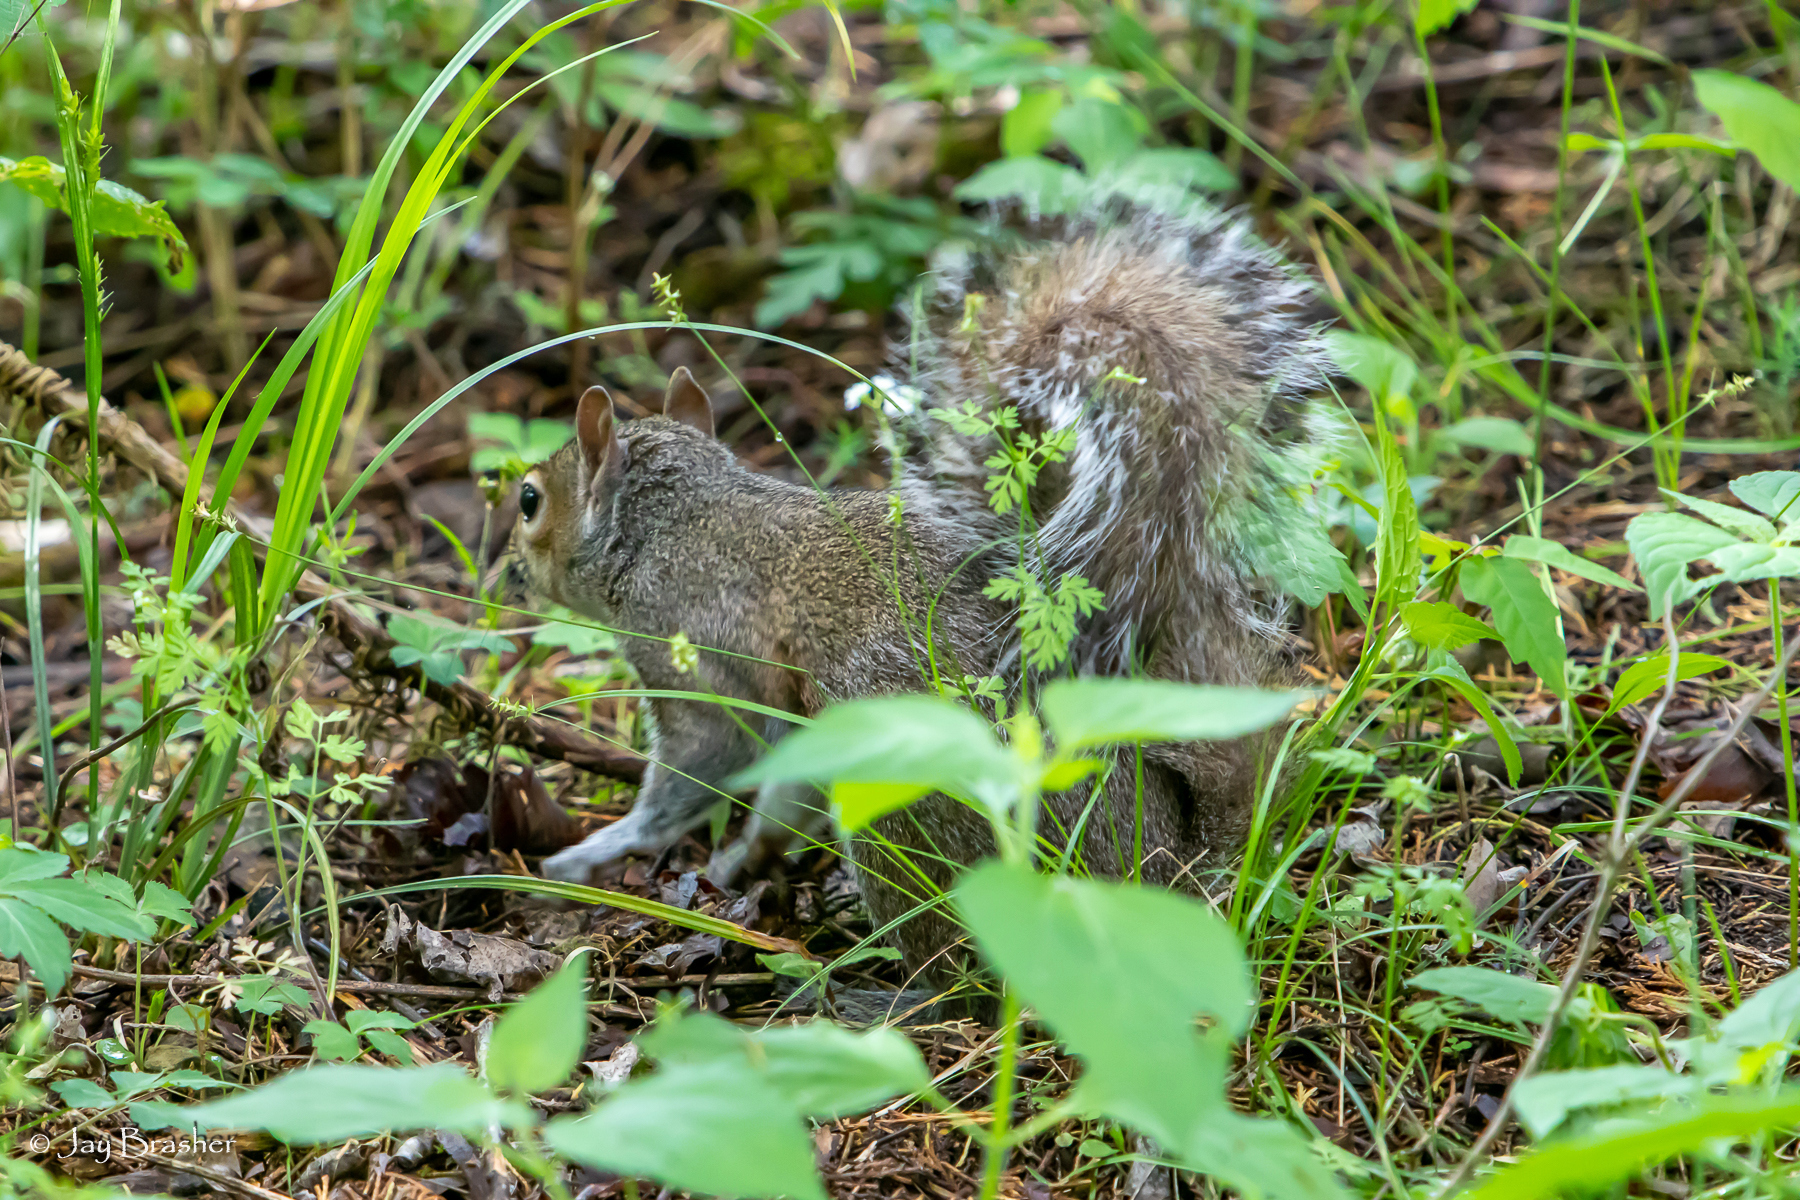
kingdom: Animalia
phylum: Chordata
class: Mammalia
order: Rodentia
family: Sciuridae
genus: Sciurus
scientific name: Sciurus carolinensis
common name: Eastern gray squirrel
